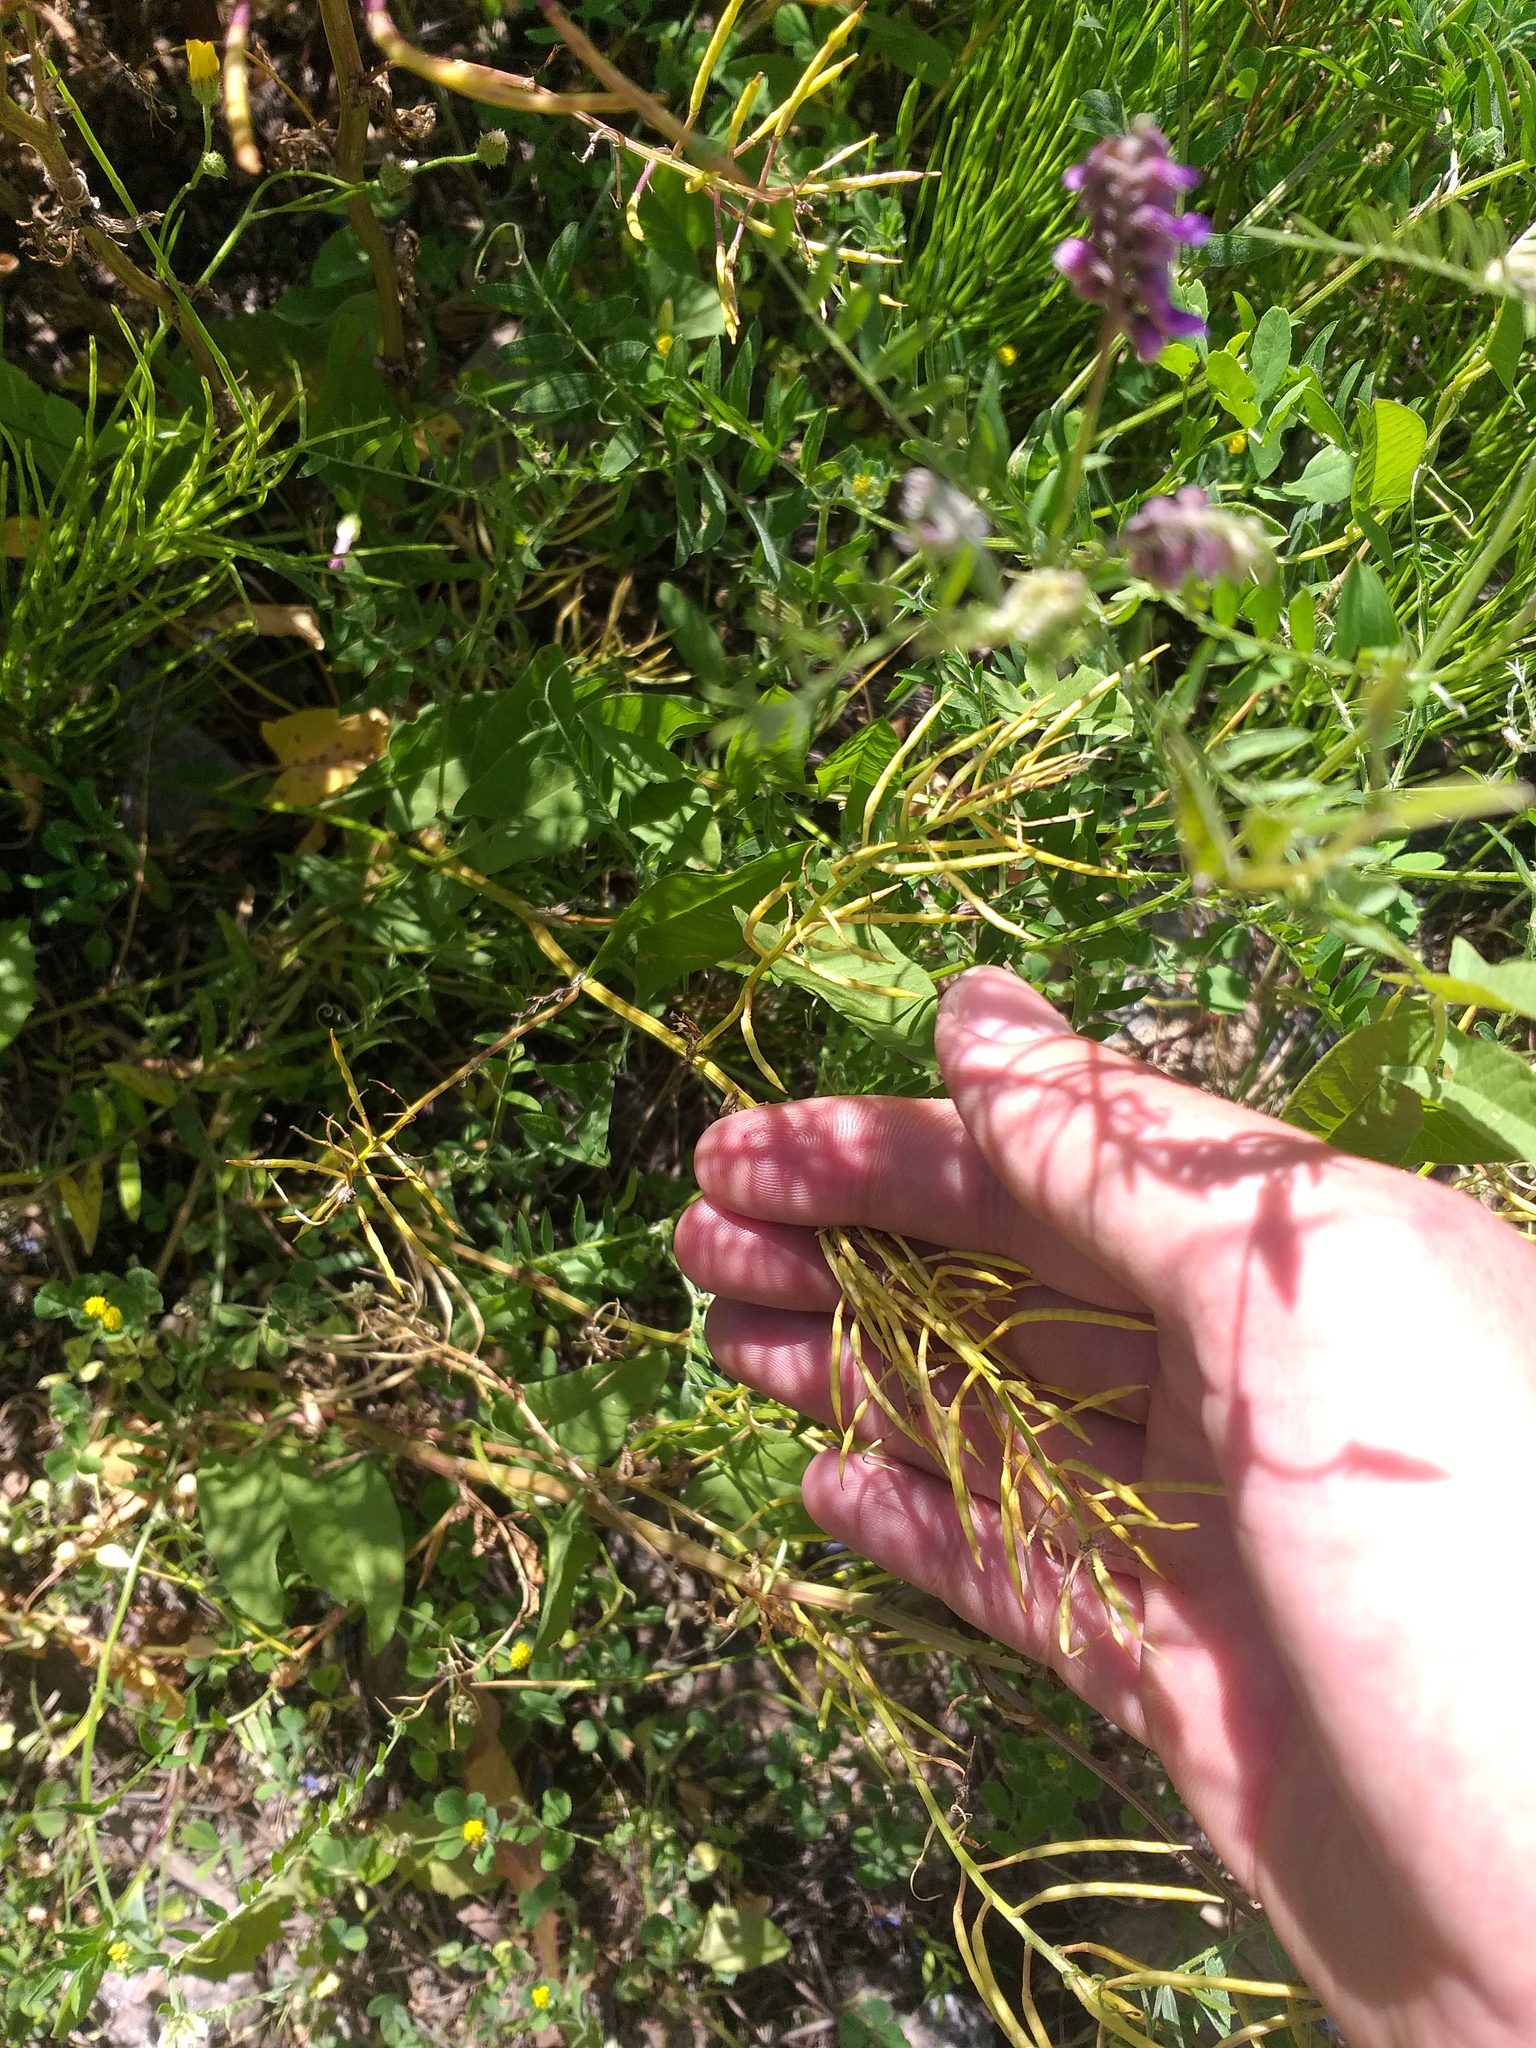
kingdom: Plantae
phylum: Tracheophyta
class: Magnoliopsida
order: Brassicales
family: Brassicaceae
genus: Barbarea
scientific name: Barbarea vulgaris
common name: Cressy-greens
